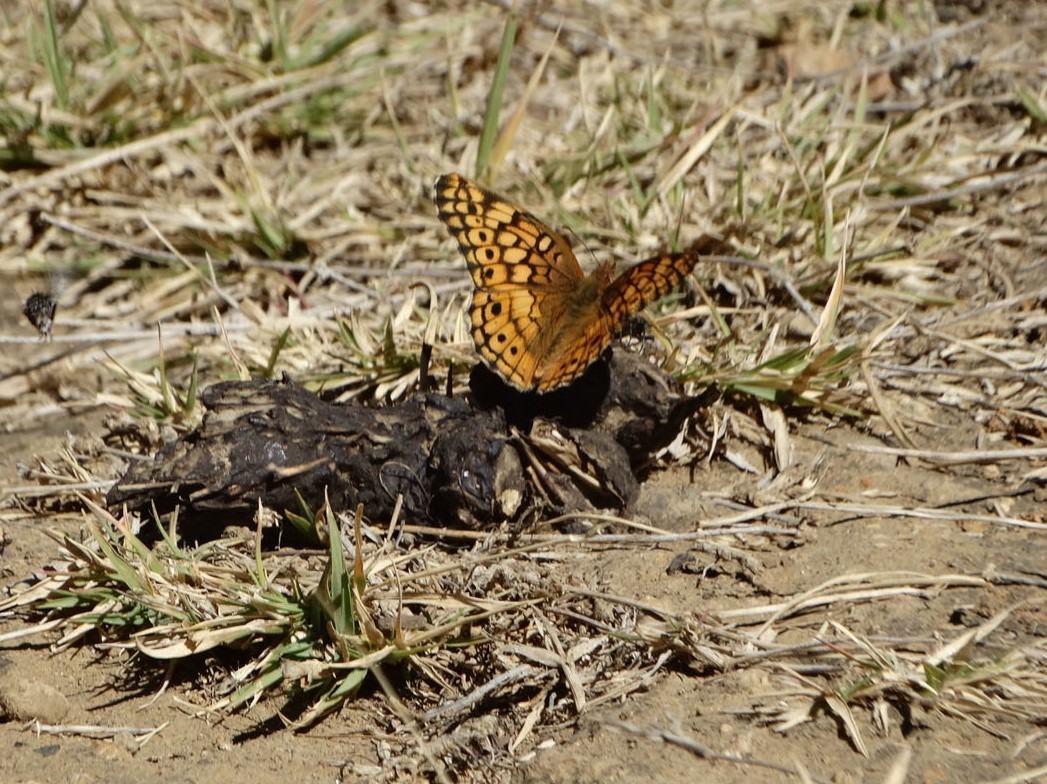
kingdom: Animalia
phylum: Arthropoda
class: Insecta
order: Lepidoptera
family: Nymphalidae
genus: Euptoieta
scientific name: Euptoieta claudia
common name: Variegated fritillary
